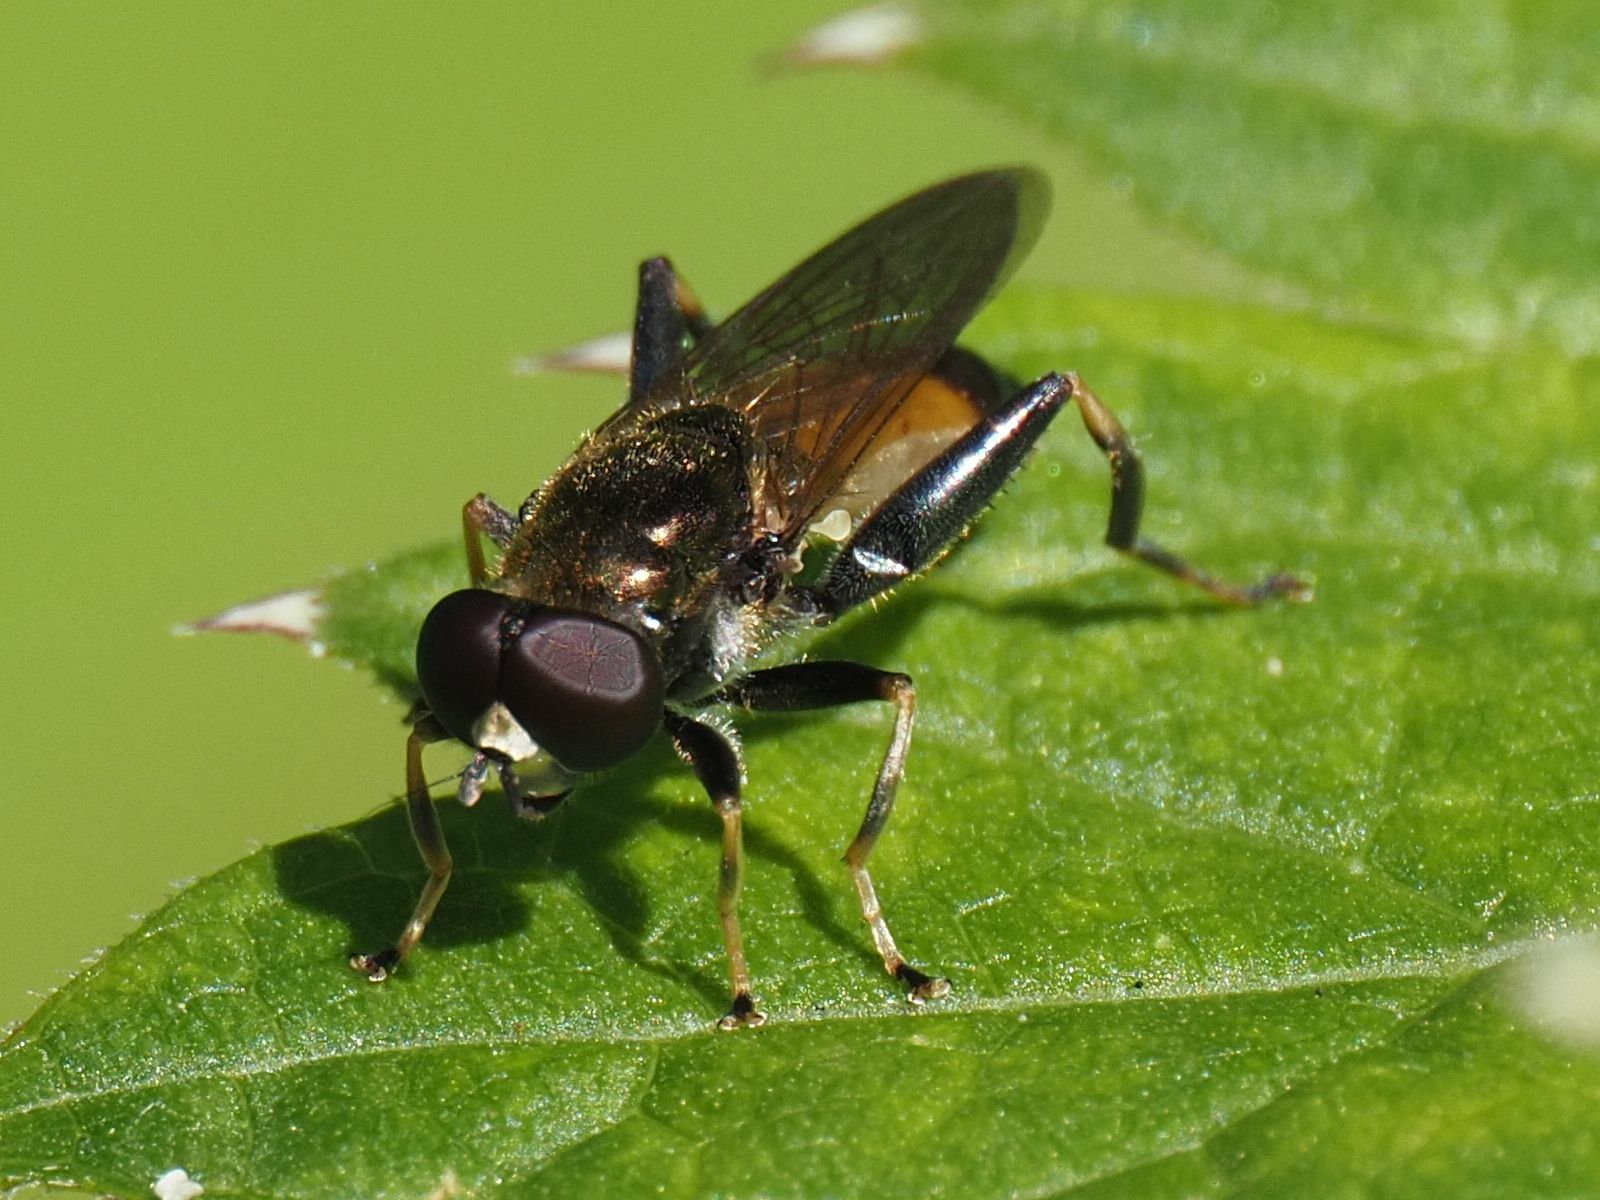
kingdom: Animalia
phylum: Arthropoda
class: Insecta
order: Diptera
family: Syrphidae
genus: Xylota
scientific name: Xylota segnis
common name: Brown-toed forest fly
